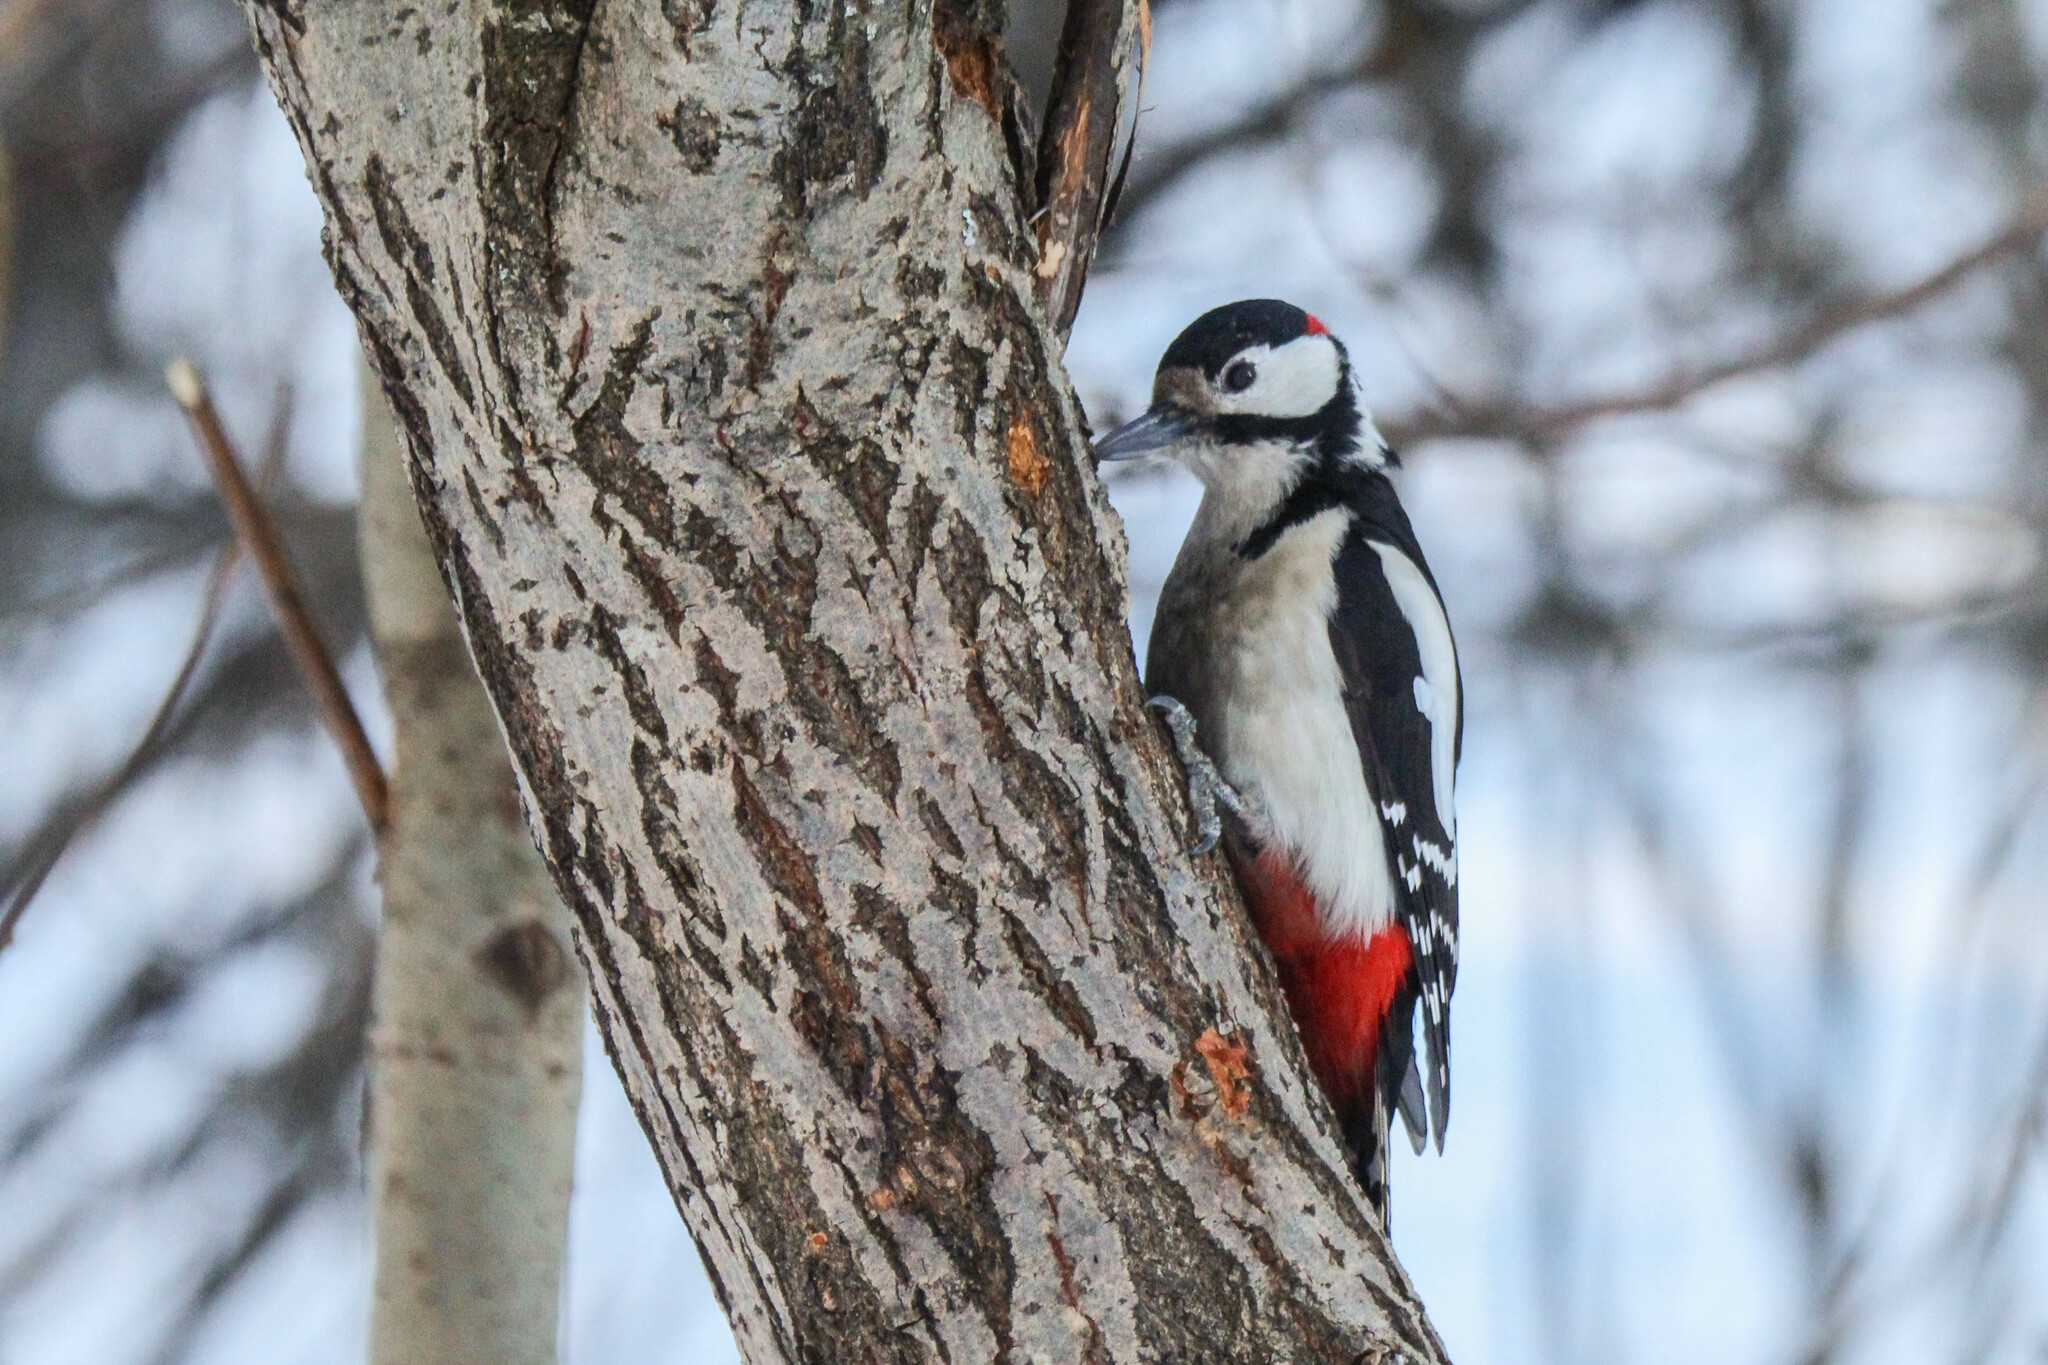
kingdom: Animalia
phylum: Chordata
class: Aves
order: Piciformes
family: Picidae
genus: Dendrocopos
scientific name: Dendrocopos major
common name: Great spotted woodpecker
